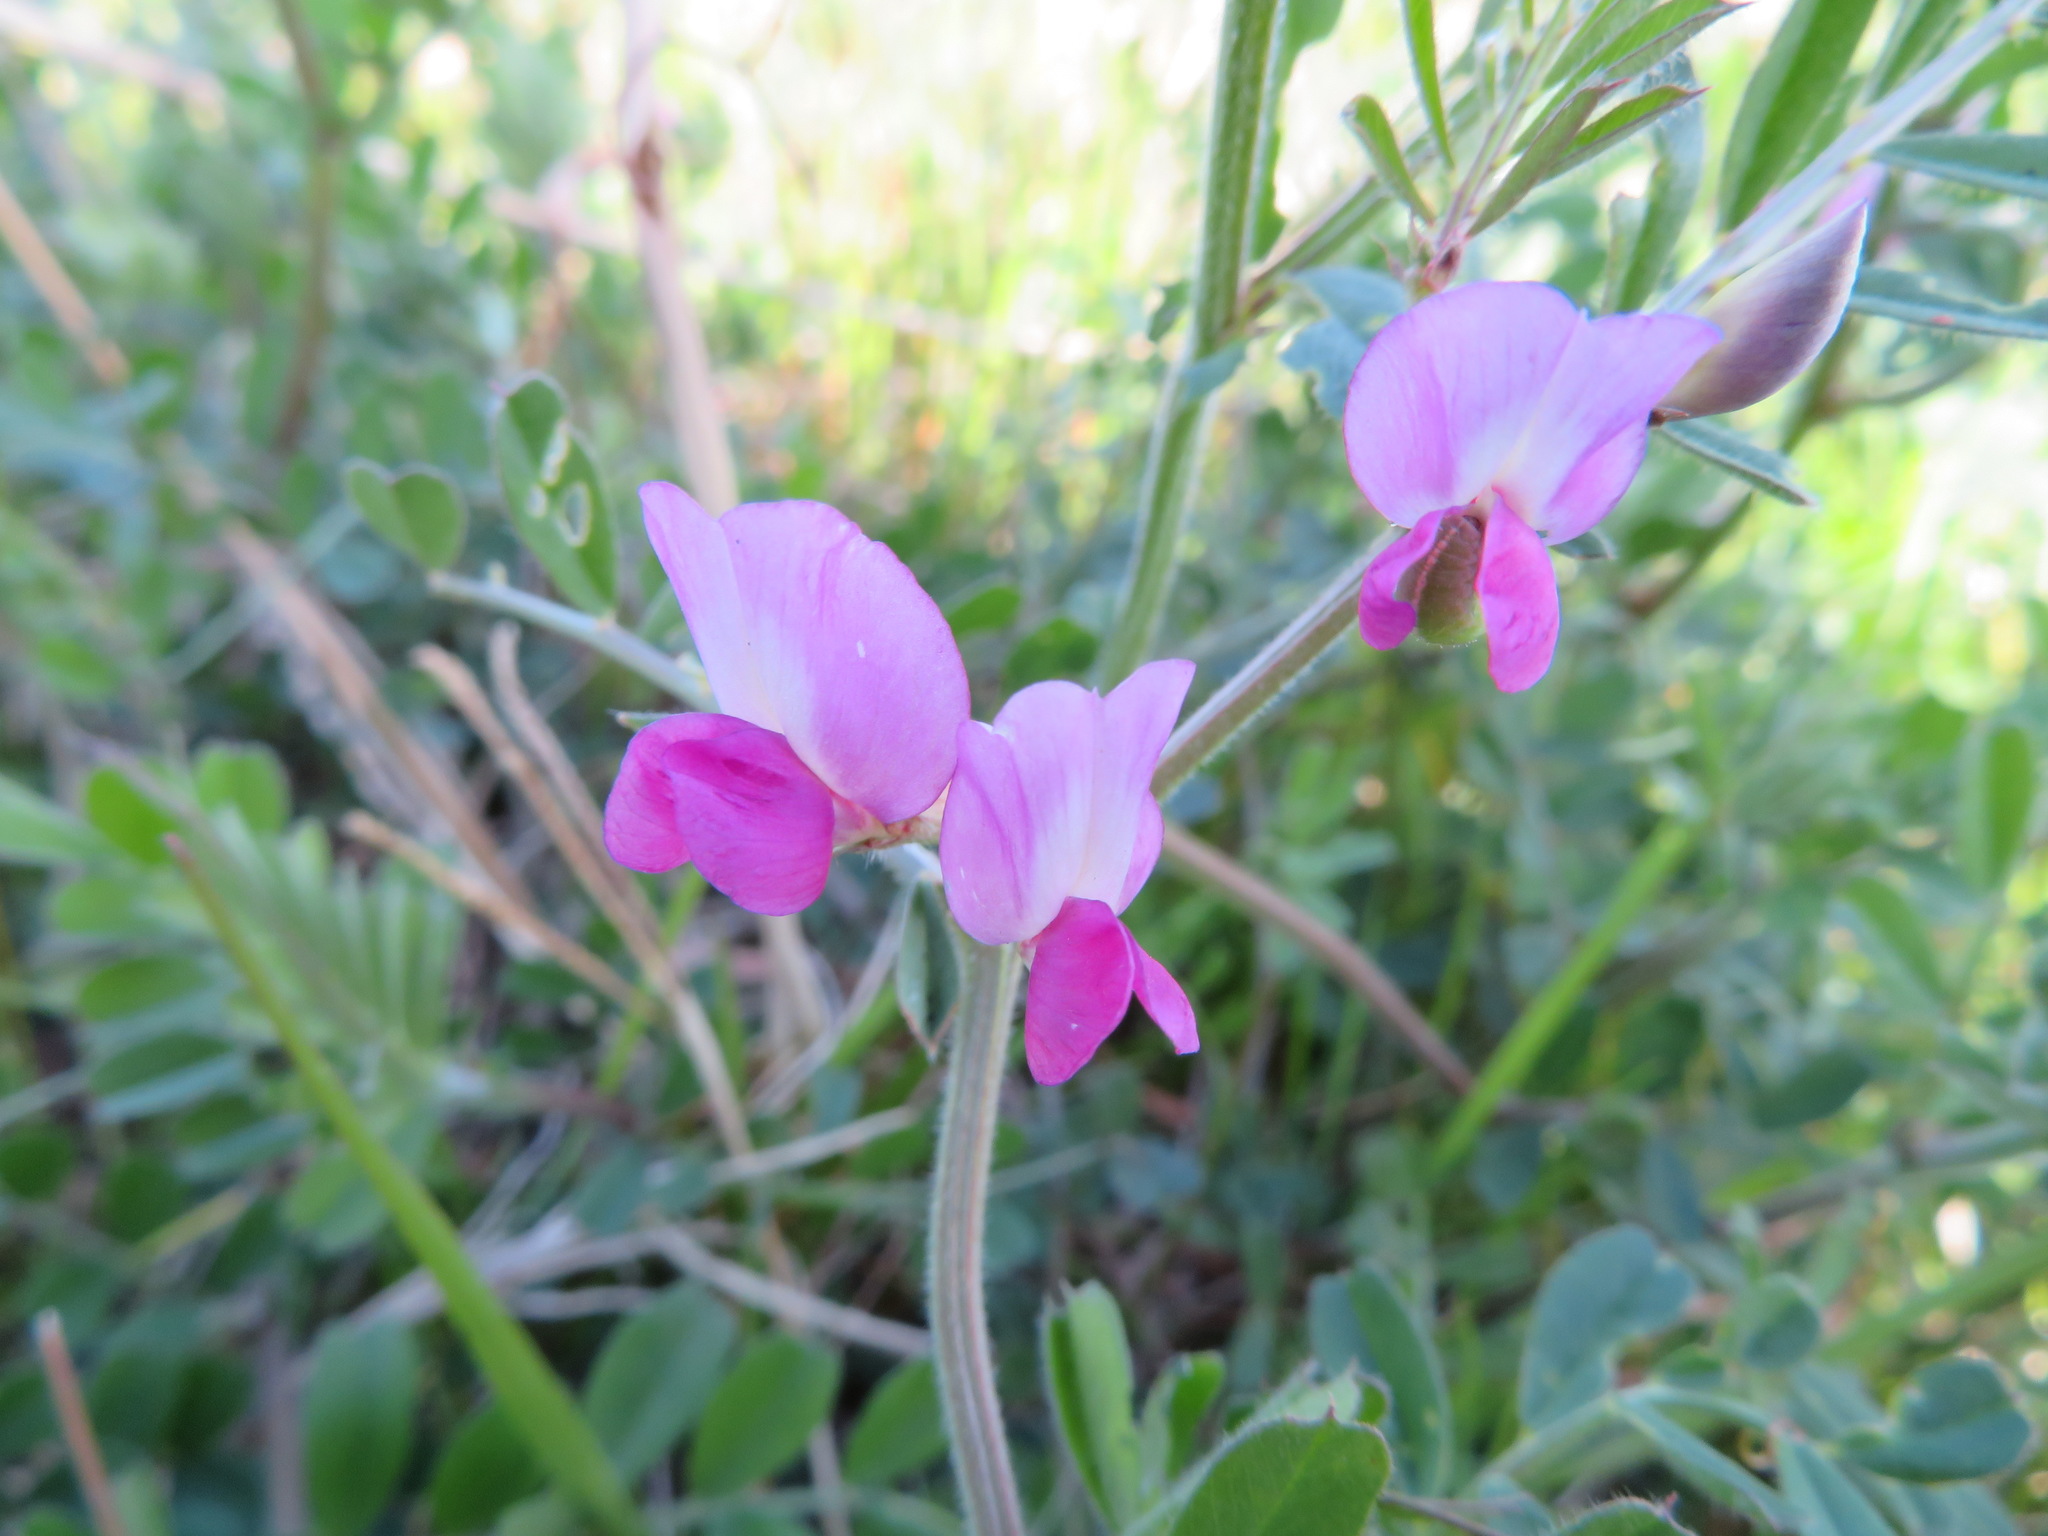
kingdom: Plantae
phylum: Tracheophyta
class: Magnoliopsida
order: Fabales
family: Fabaceae
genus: Vicia
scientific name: Vicia sativa
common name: Garden vetch
